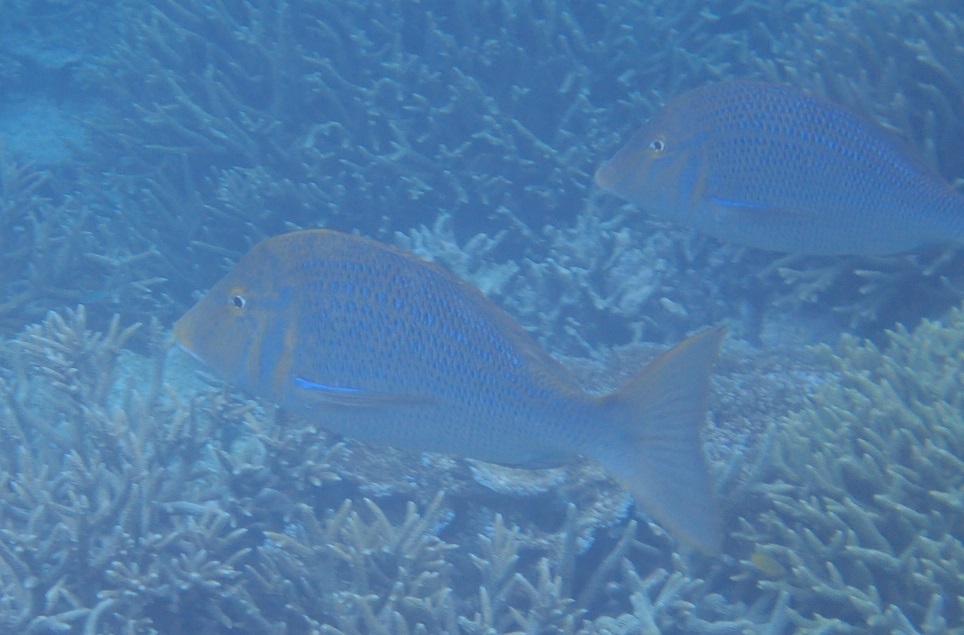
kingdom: Animalia
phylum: Chordata
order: Perciformes
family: Lethrinidae
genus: Lethrinus
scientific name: Lethrinus nebulosus
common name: Spangled emperor
